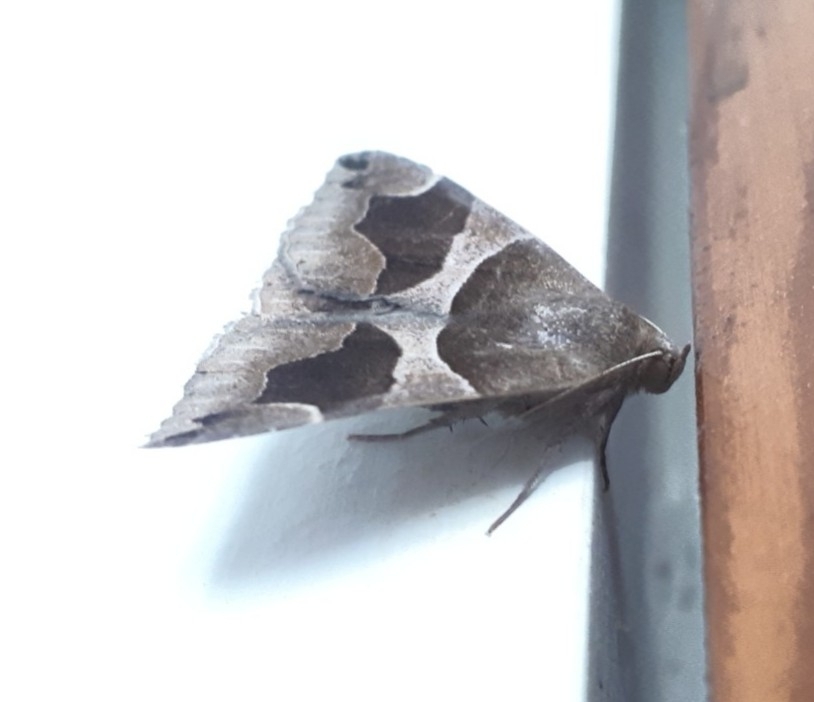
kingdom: Animalia
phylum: Arthropoda
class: Insecta
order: Lepidoptera
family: Erebidae
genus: Dysgonia
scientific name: Dysgonia algira
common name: Passenger
